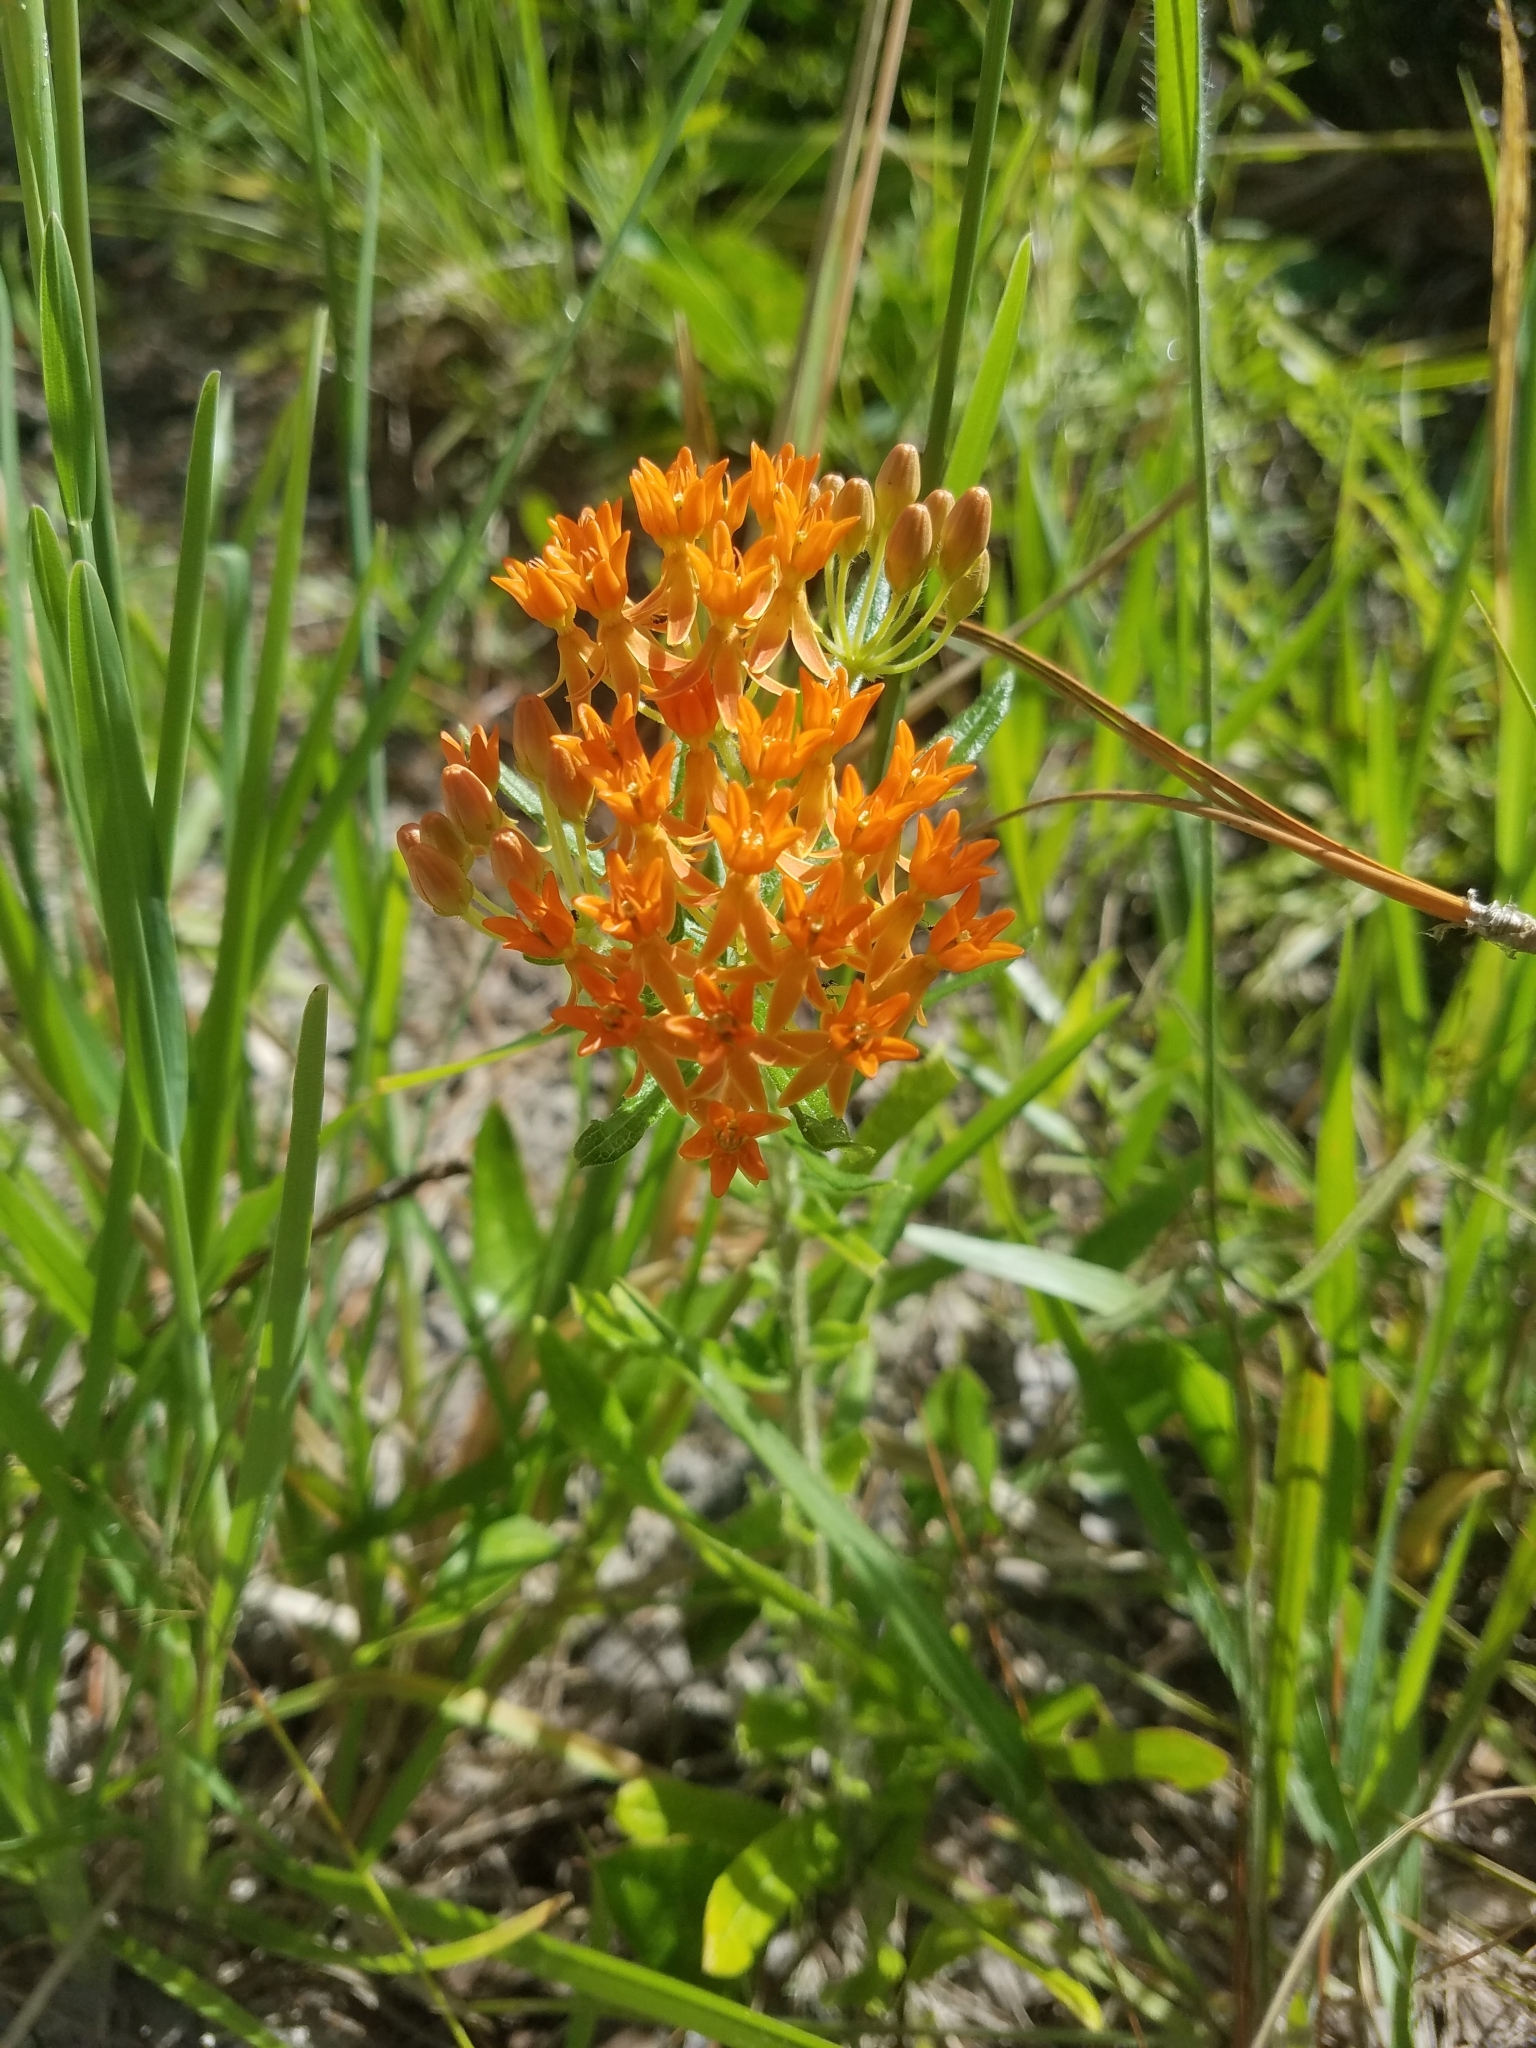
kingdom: Plantae
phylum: Tracheophyta
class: Magnoliopsida
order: Gentianales
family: Apocynaceae
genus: Asclepias
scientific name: Asclepias tuberosa
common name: Butterfly milkweed
